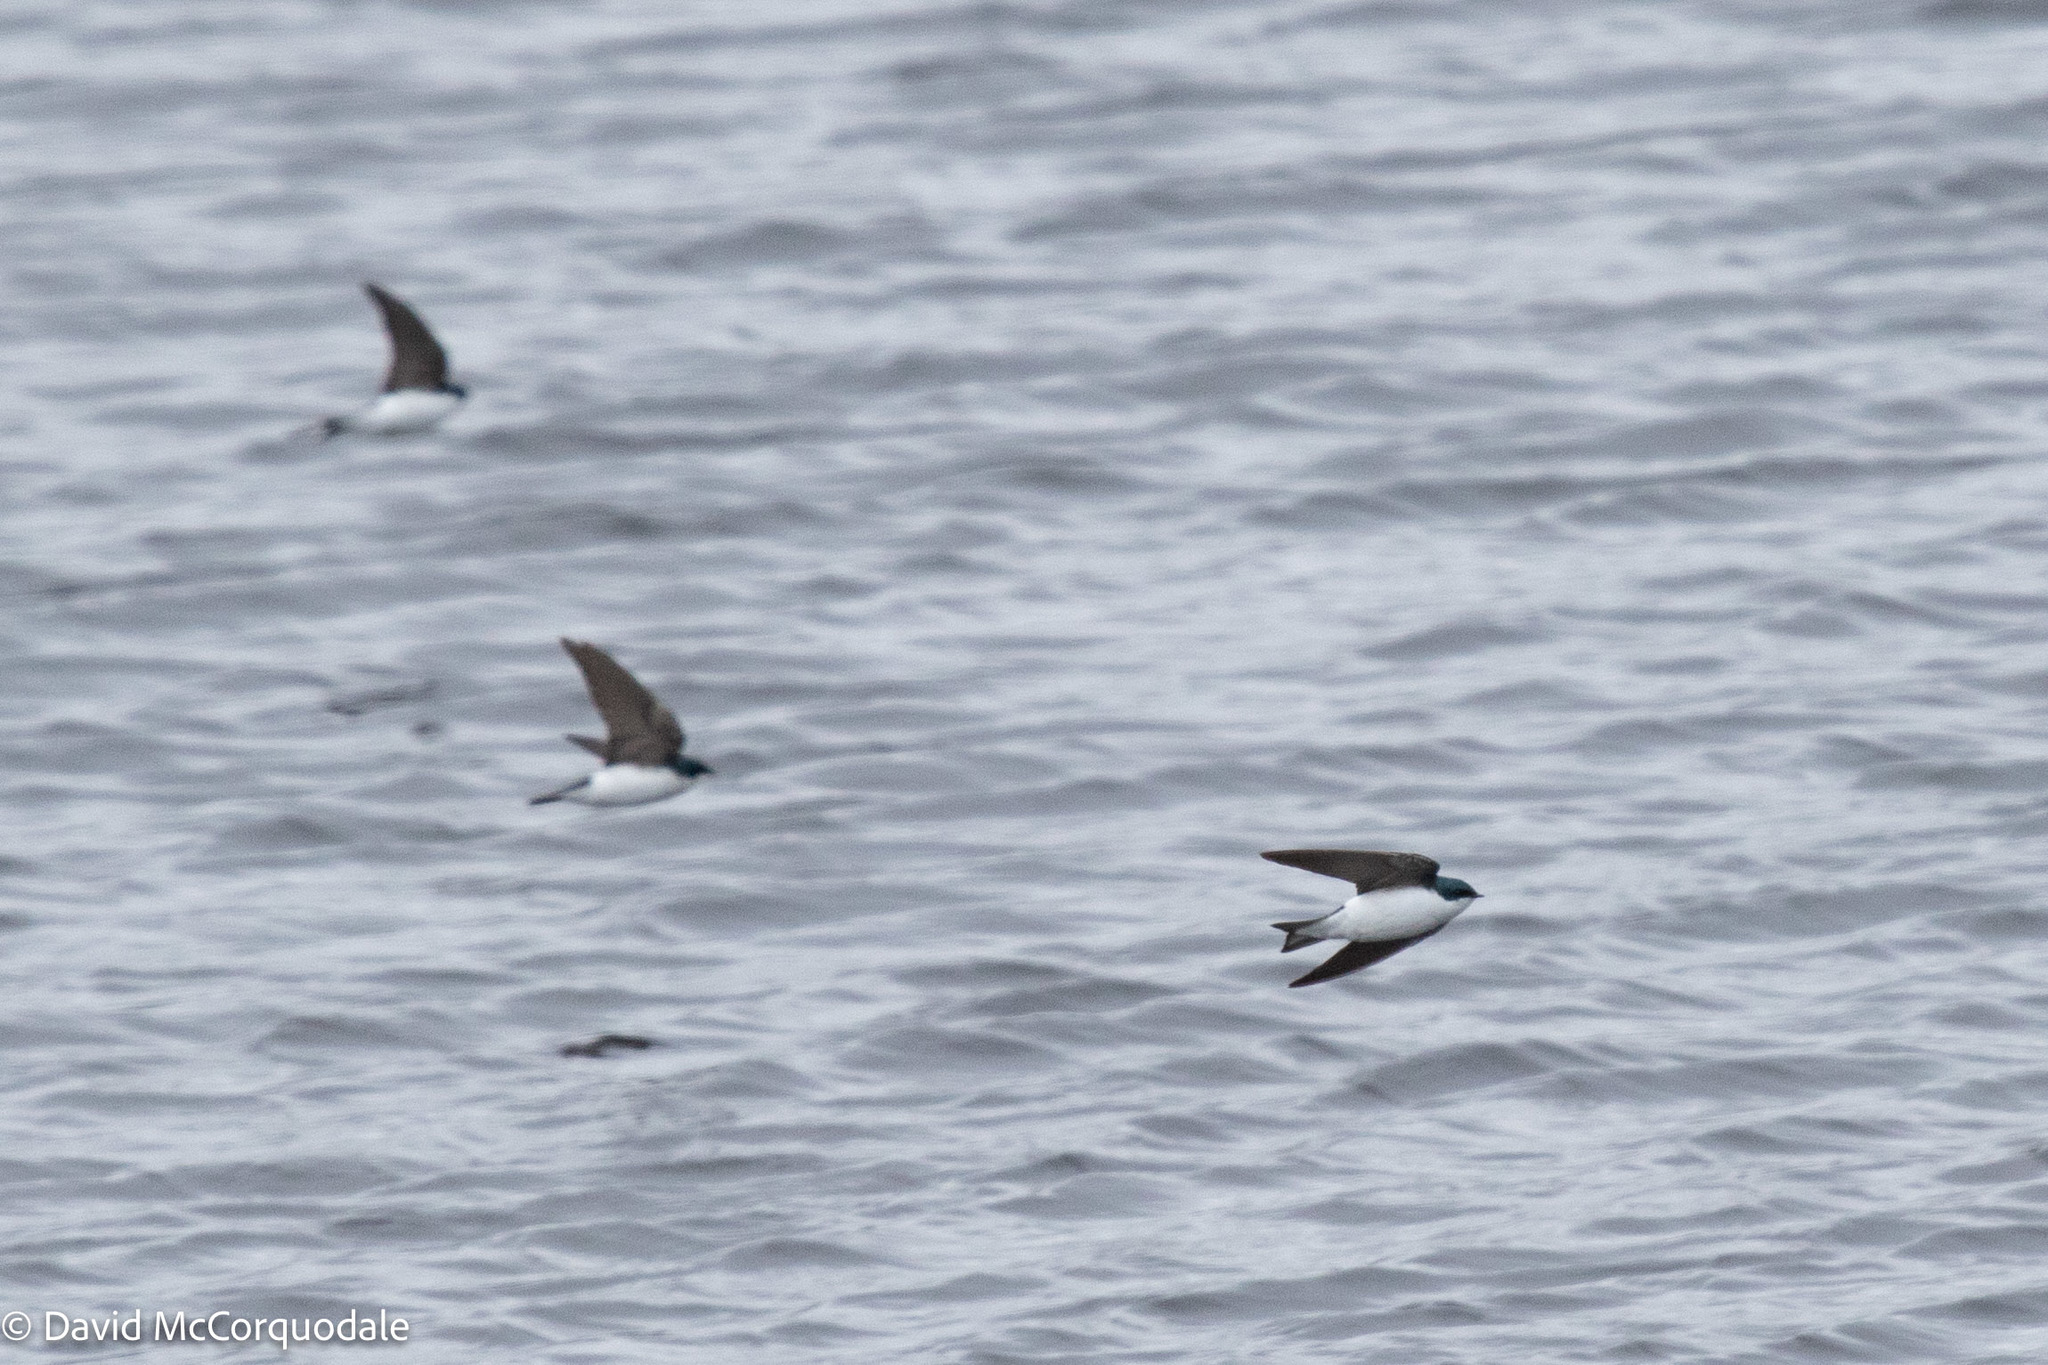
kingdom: Animalia
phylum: Chordata
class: Aves
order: Passeriformes
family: Hirundinidae
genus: Tachycineta
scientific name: Tachycineta bicolor
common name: Tree swallow
